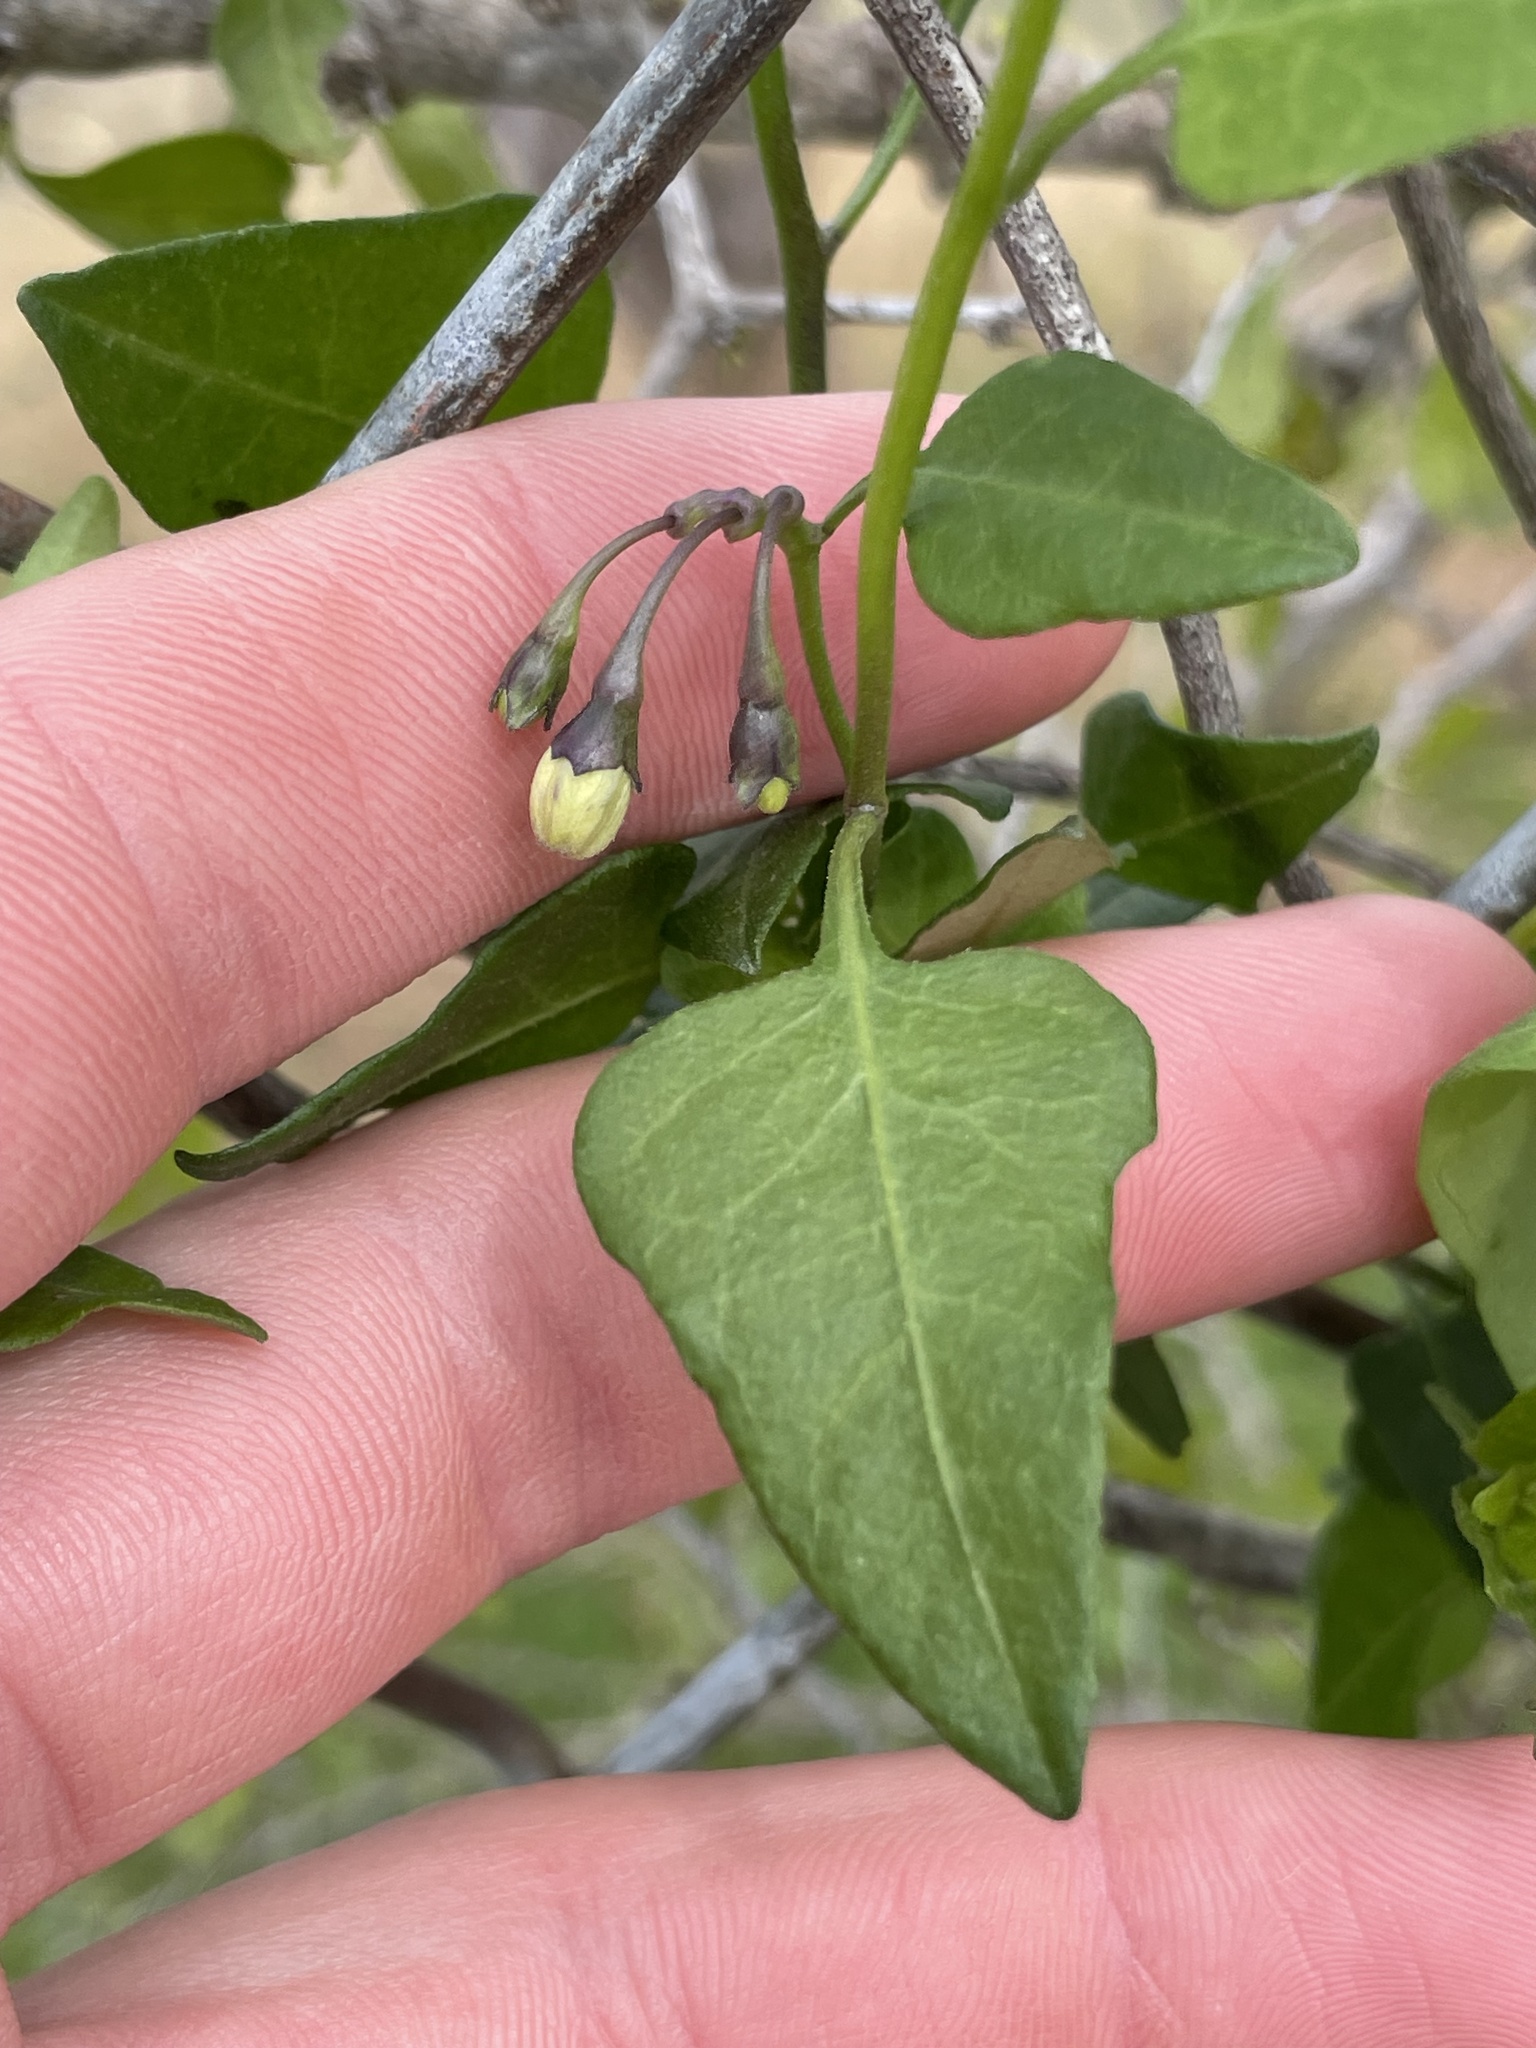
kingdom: Plantae
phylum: Tracheophyta
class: Magnoliopsida
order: Solanales
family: Solanaceae
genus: Solanum
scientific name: Solanum triquetrum
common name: Texas nightshade
